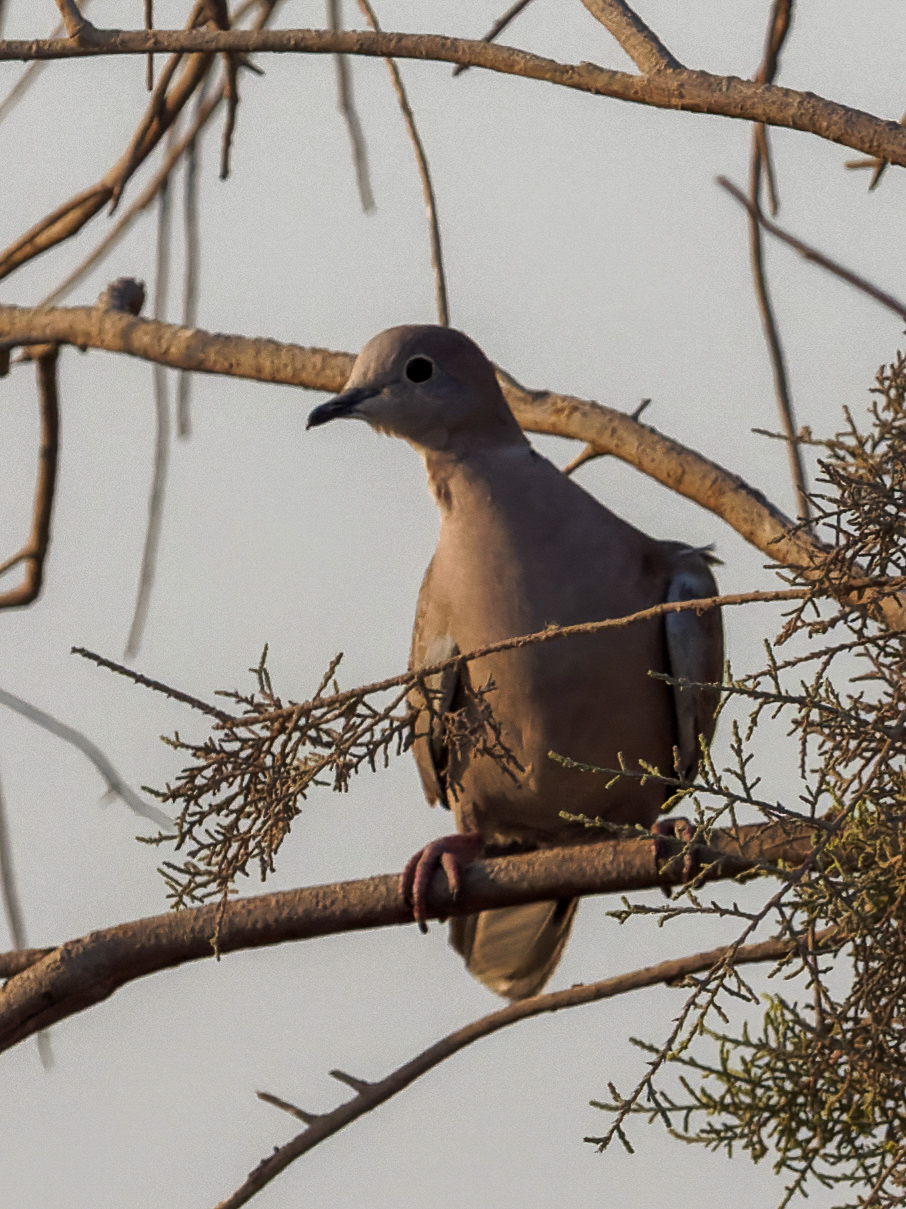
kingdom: Animalia
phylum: Chordata
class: Aves
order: Columbiformes
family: Columbidae
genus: Streptopelia
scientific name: Streptopelia decaocto
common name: Eurasian collared dove
